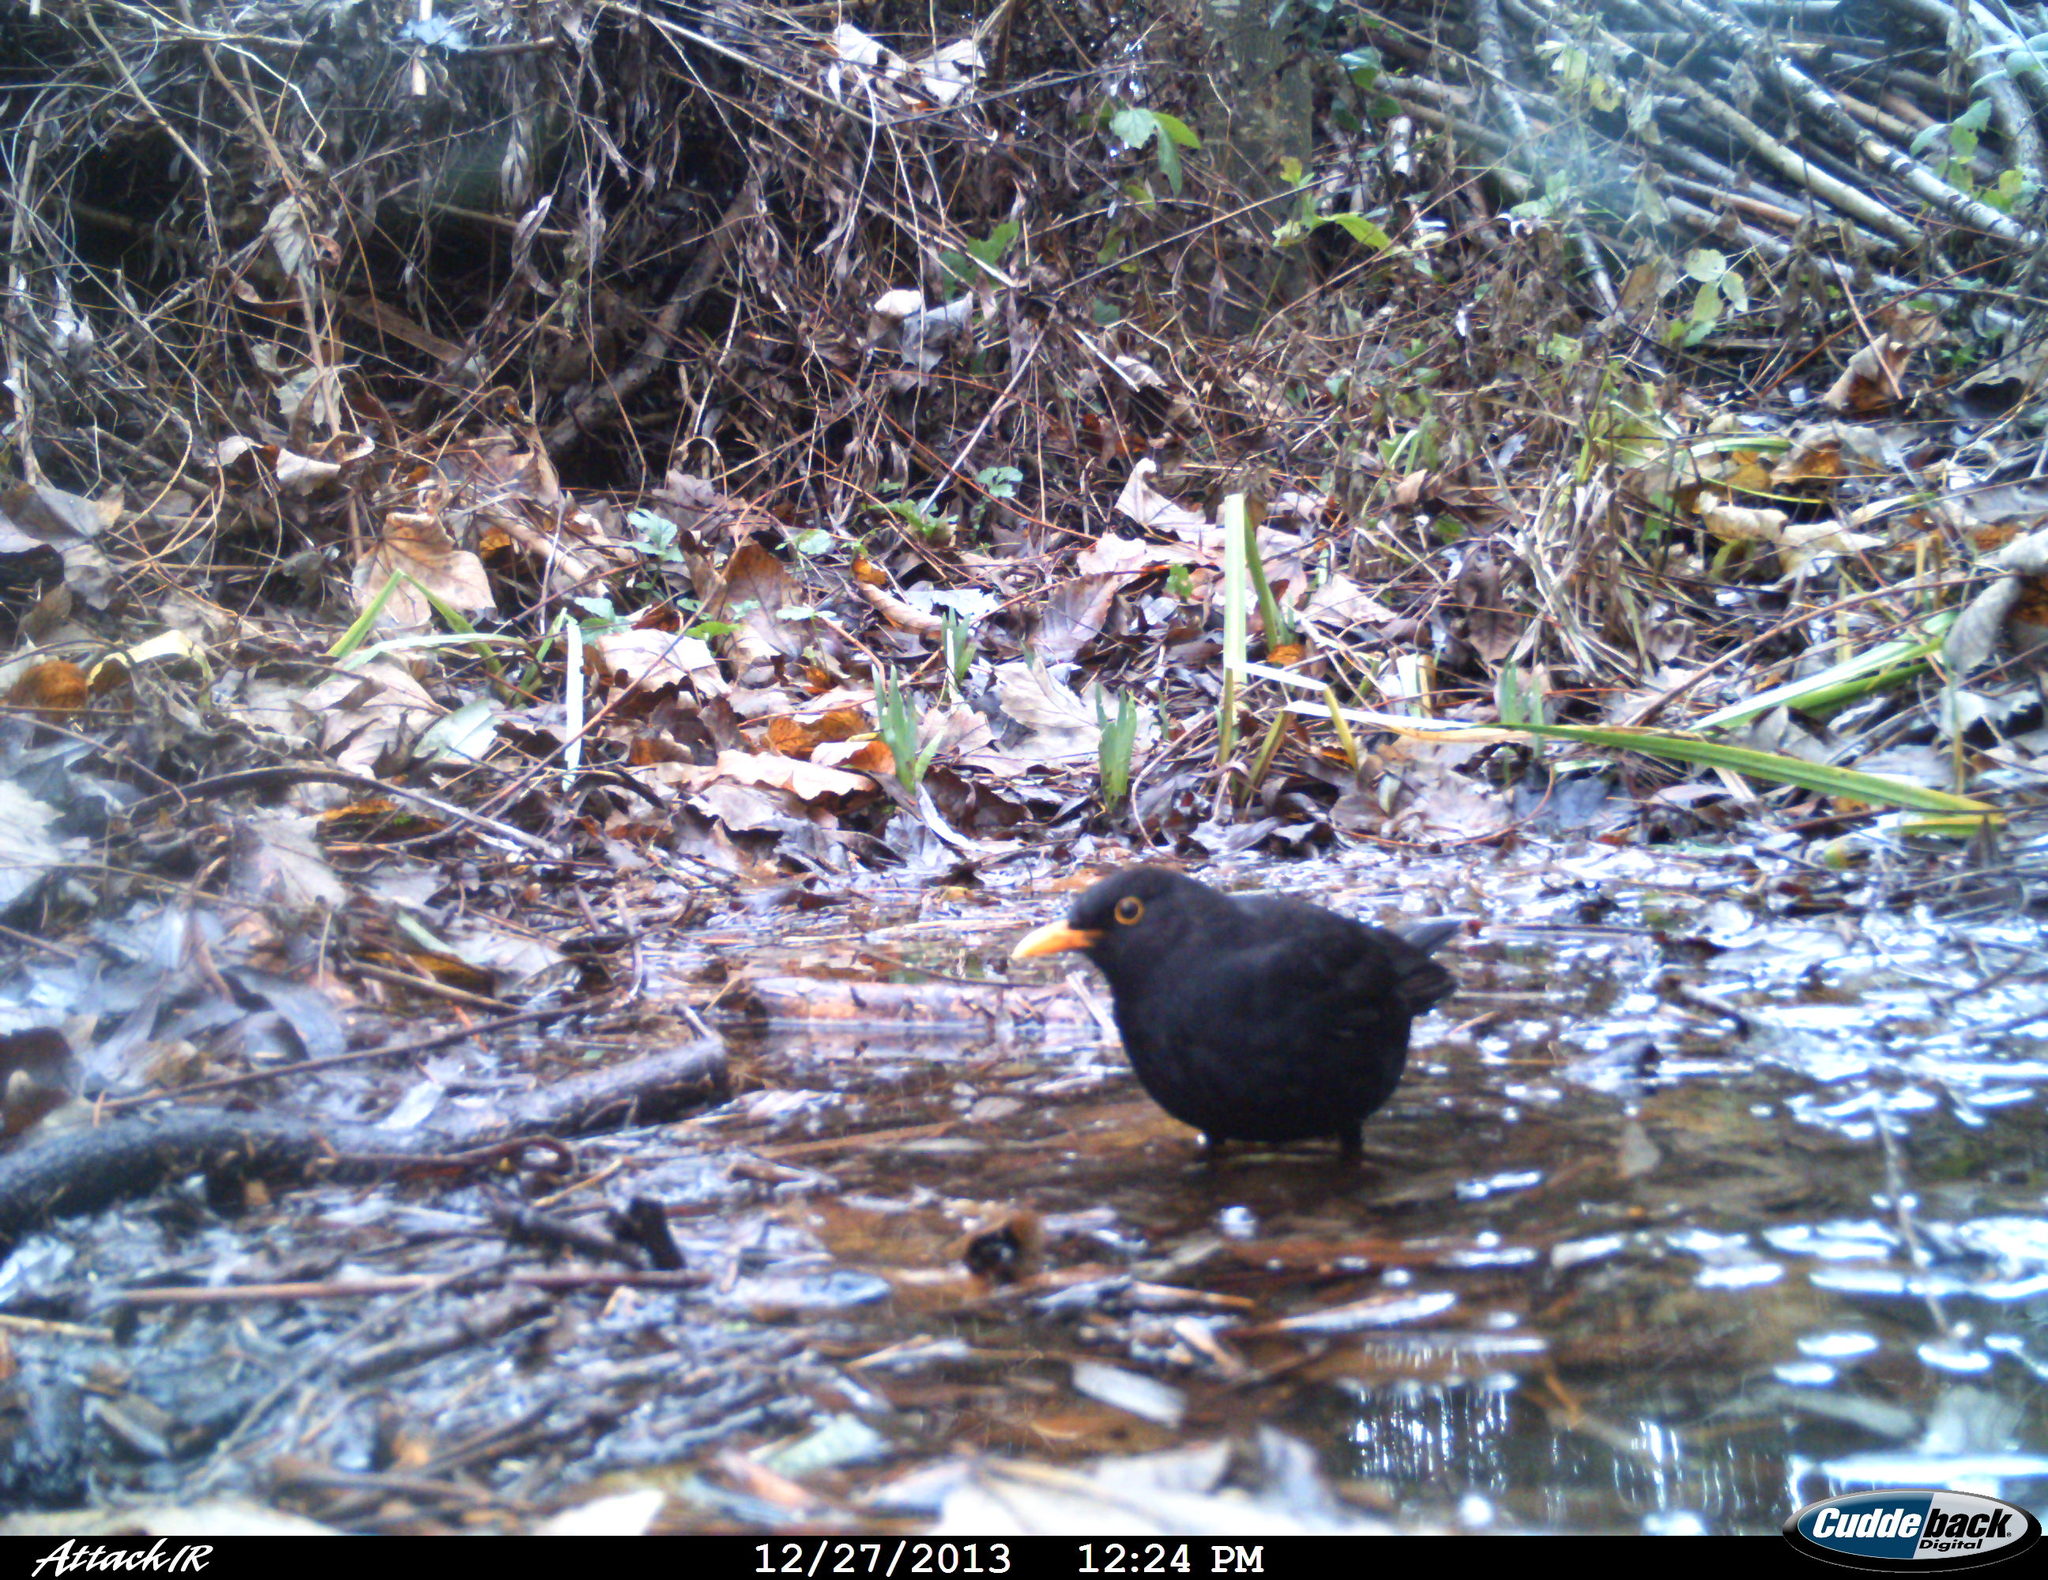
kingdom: Animalia
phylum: Chordata
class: Aves
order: Passeriformes
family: Turdidae
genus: Turdus
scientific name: Turdus merula
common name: Common blackbird
